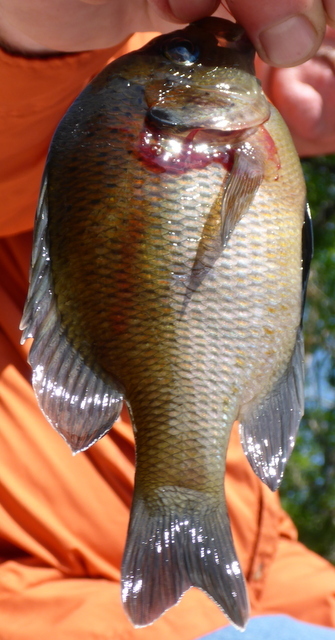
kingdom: Animalia
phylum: Chordata
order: Perciformes
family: Centrarchidae
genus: Lepomis
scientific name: Lepomis punctatus
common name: Spotted sunfish
